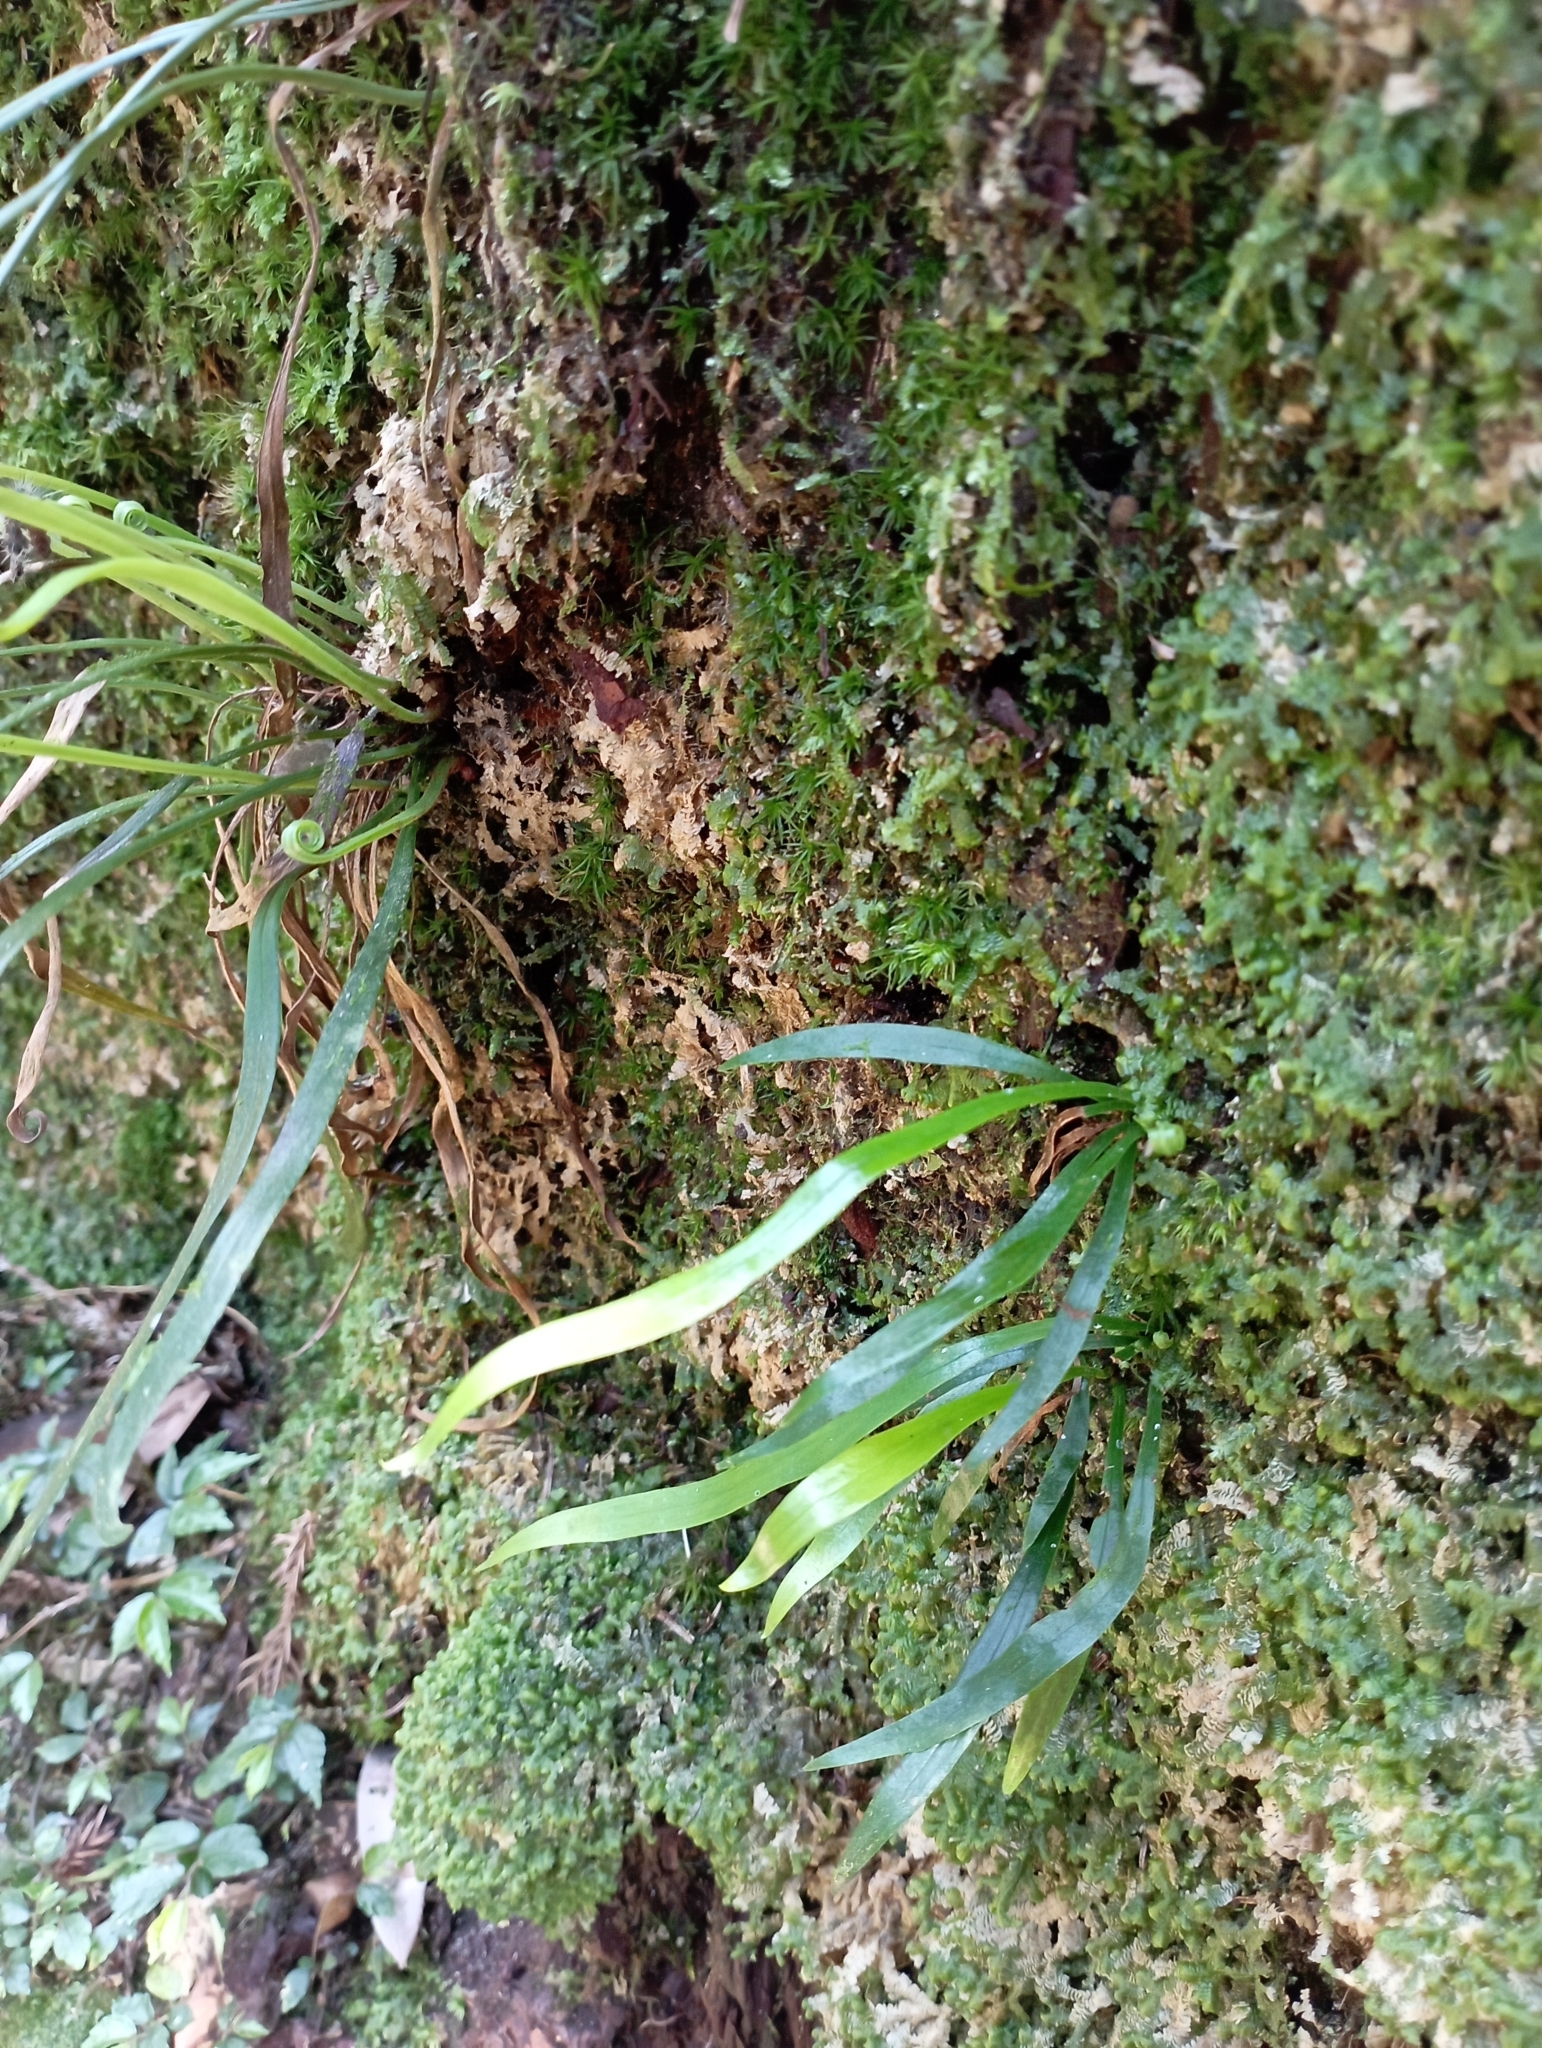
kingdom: Plantae
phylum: Tracheophyta
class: Polypodiopsida
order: Polypodiales
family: Pteridaceae
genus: Haplopteris
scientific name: Haplopteris anguste-elongata
